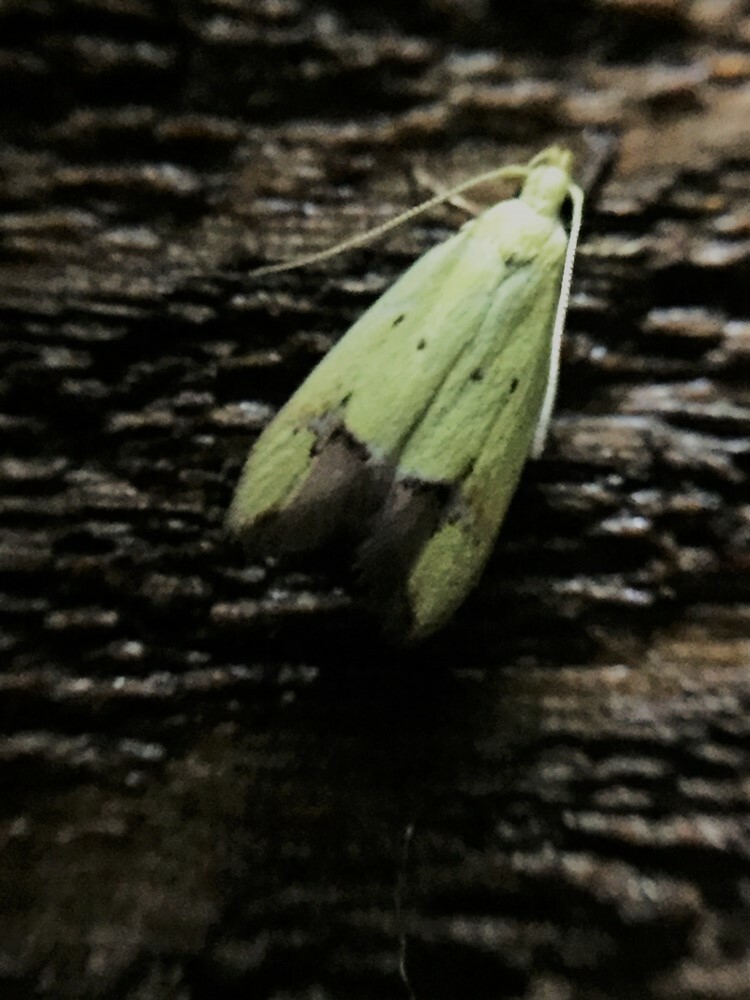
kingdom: Animalia
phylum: Arthropoda
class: Insecta
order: Lepidoptera
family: Oecophoridae
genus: Gymnobathra
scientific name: Gymnobathra flavidella
